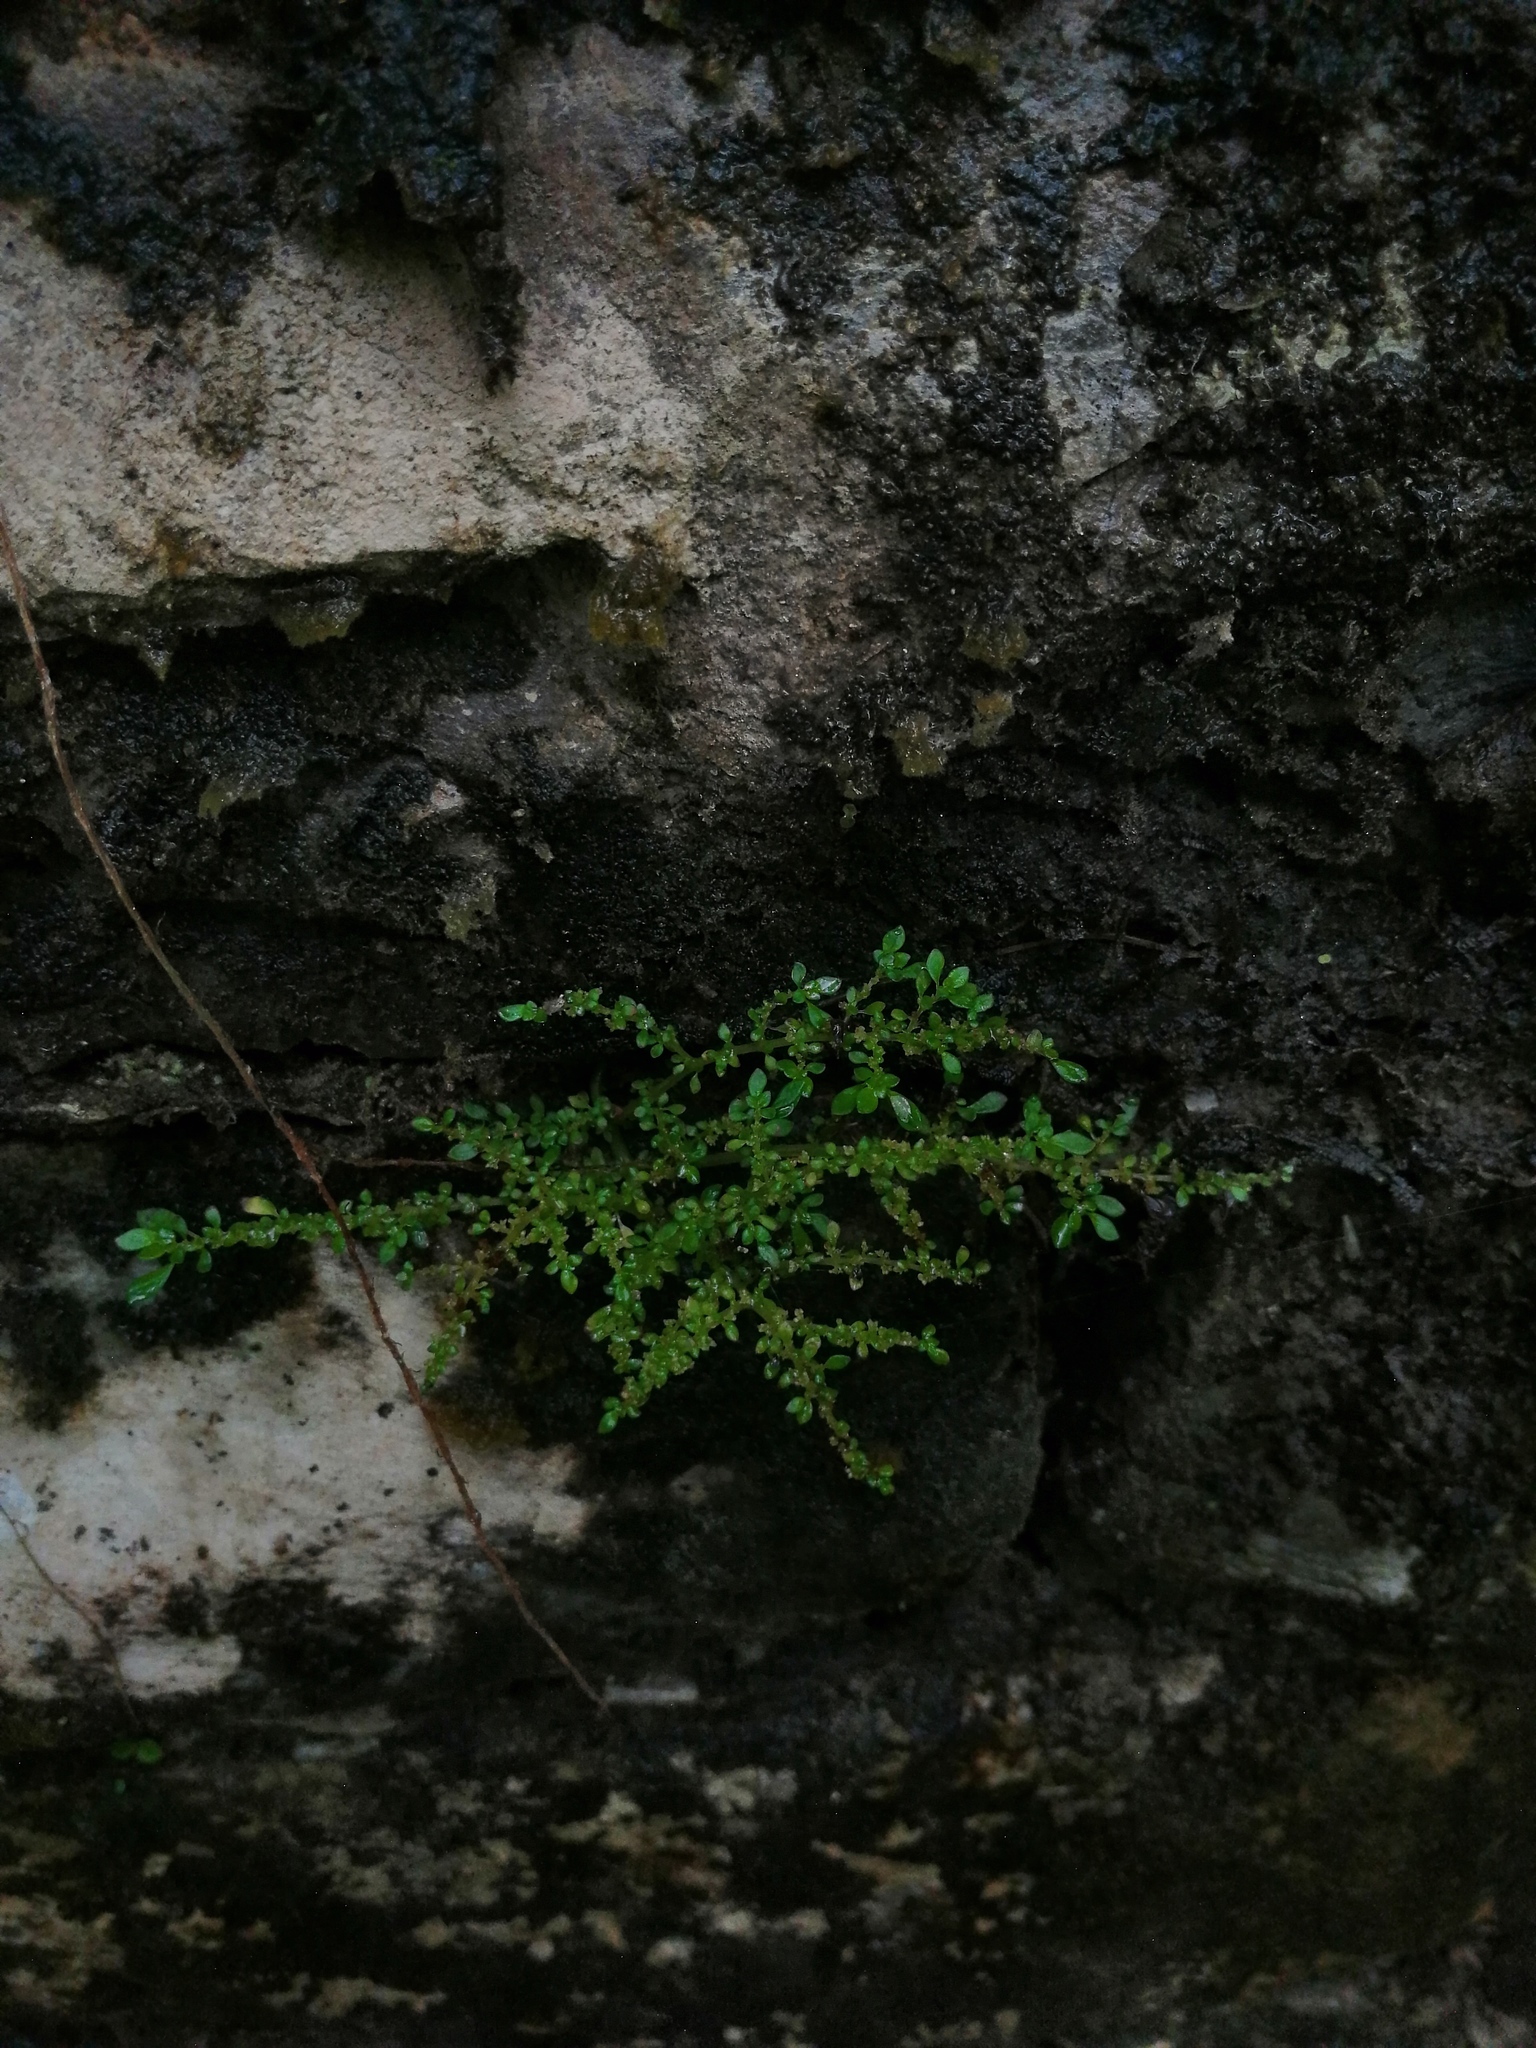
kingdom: Plantae
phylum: Tracheophyta
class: Magnoliopsida
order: Rosales
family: Urticaceae
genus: Pilea
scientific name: Pilea microphylla
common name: Artillery-plant
